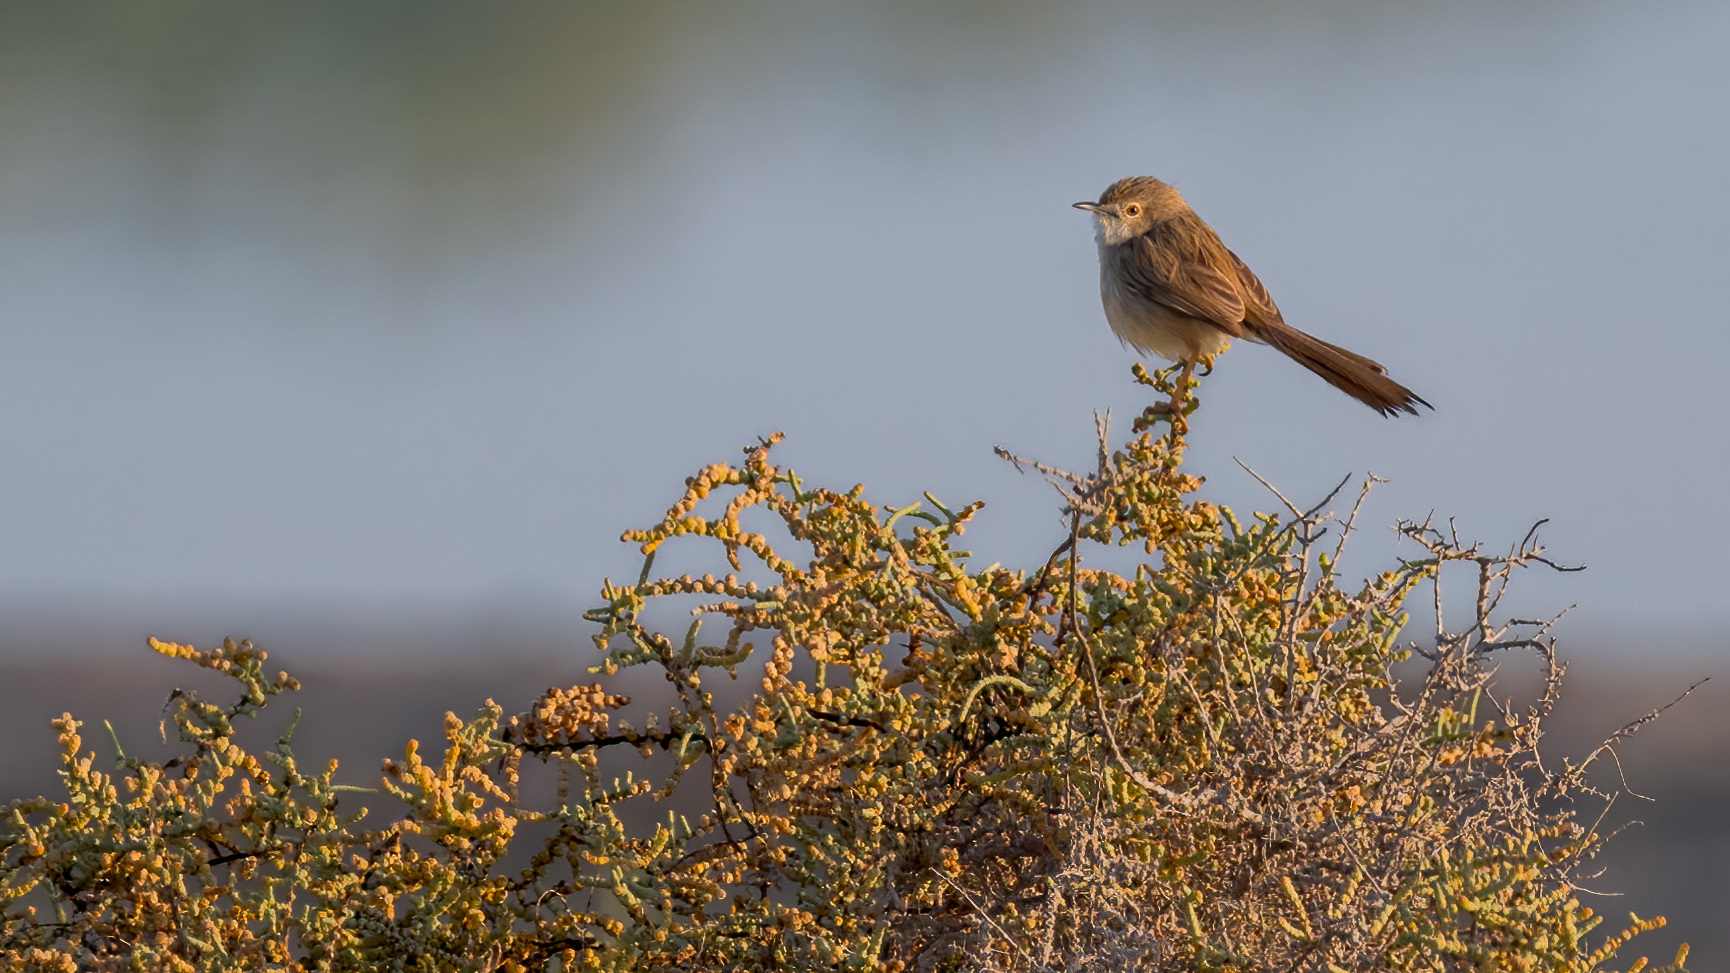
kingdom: Animalia
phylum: Chordata
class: Aves
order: Passeriformes
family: Cisticolidae
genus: Prinia
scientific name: Prinia lepida
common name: Delicate prinia
